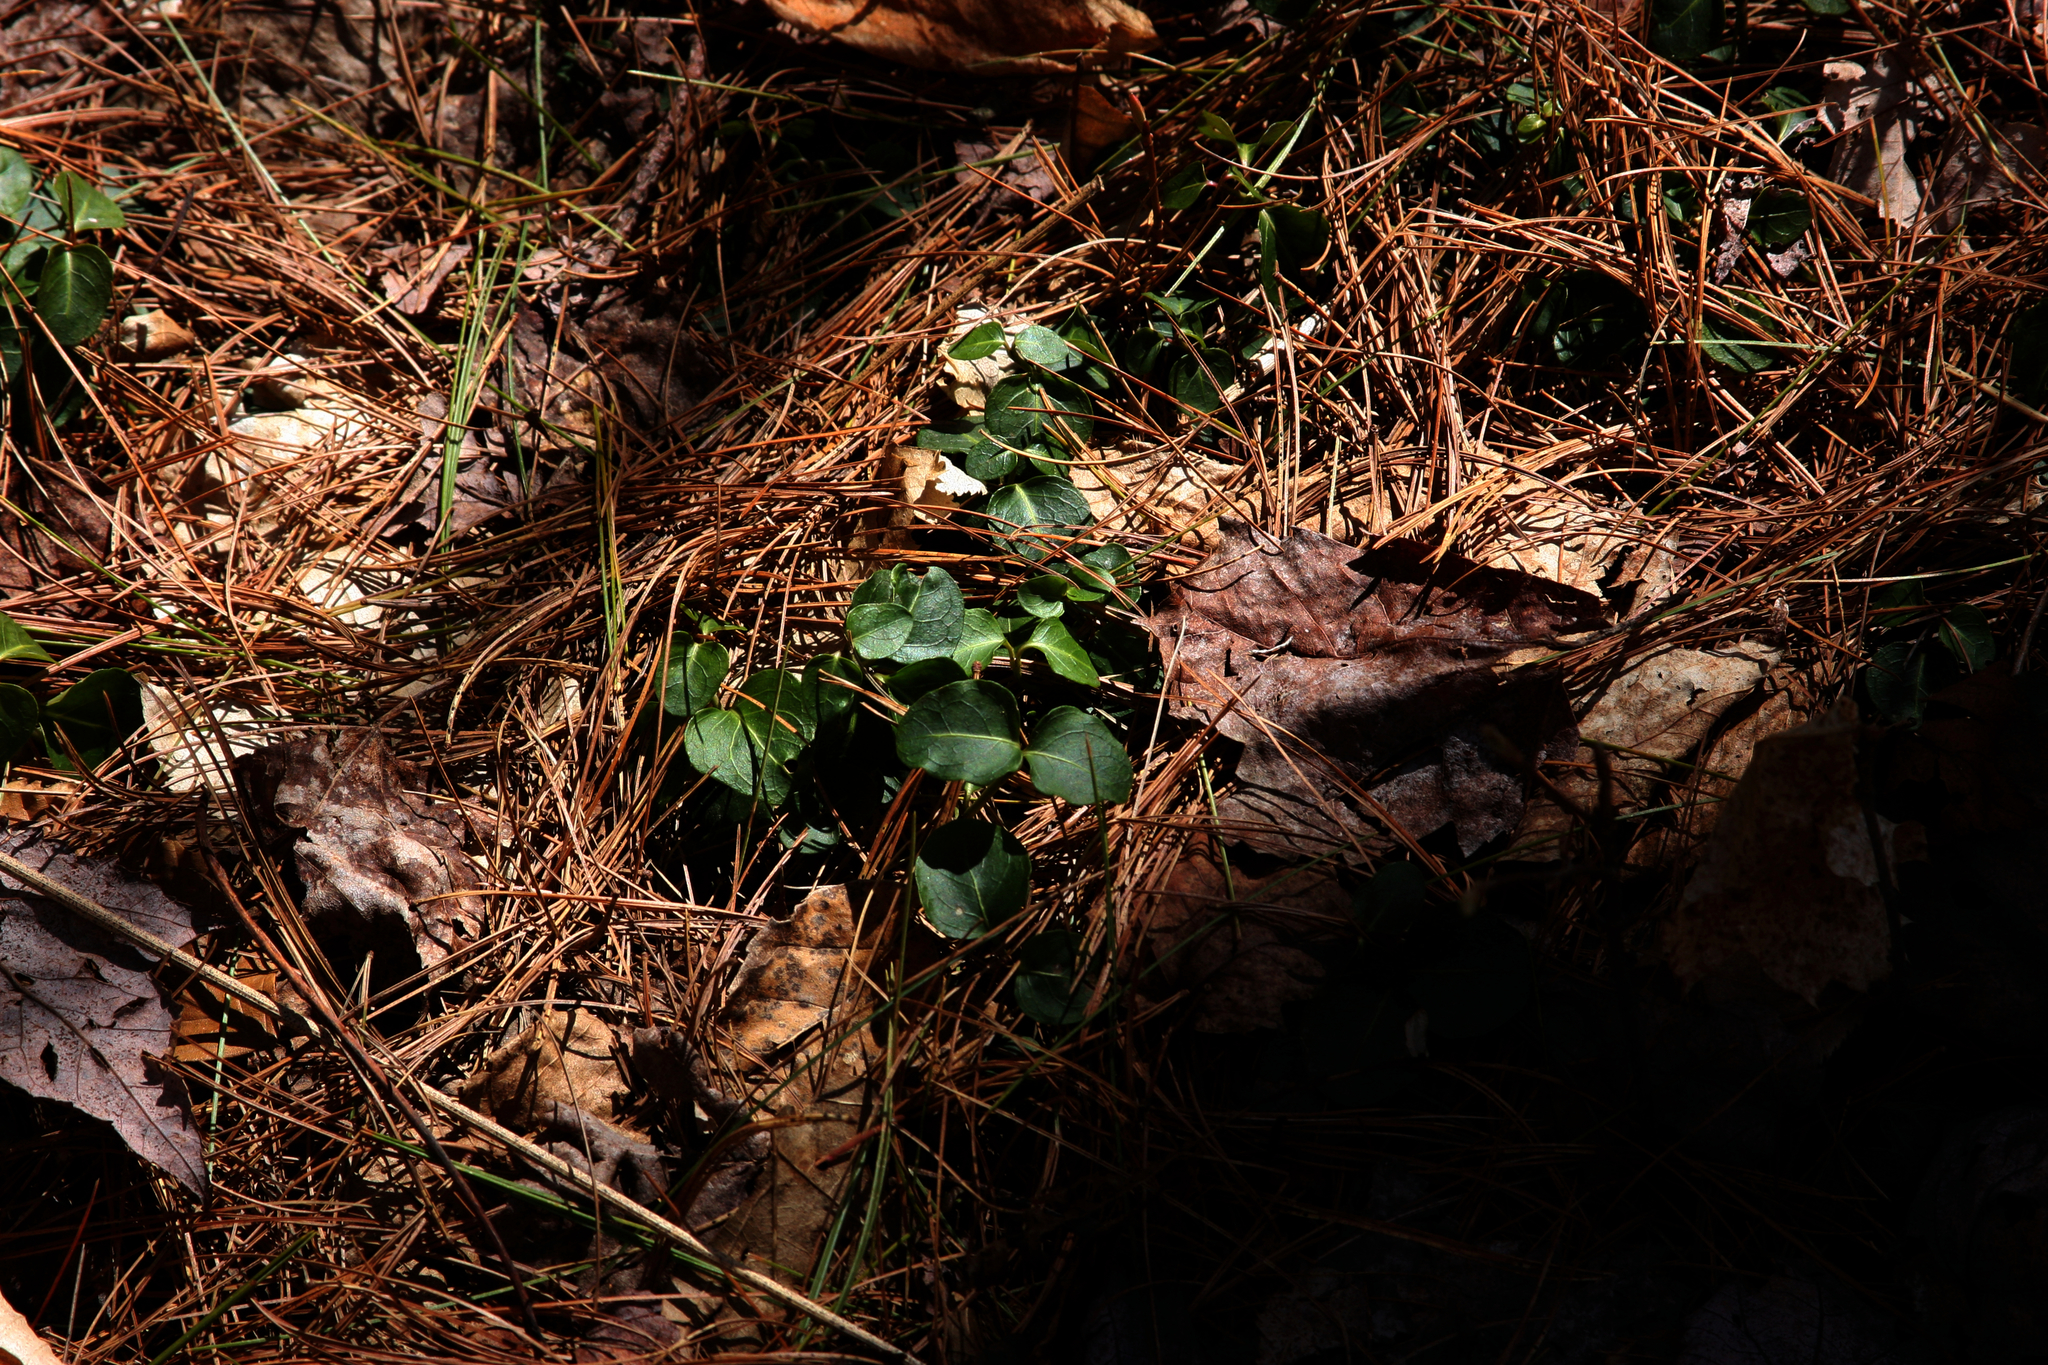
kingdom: Plantae
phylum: Tracheophyta
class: Magnoliopsida
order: Gentianales
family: Rubiaceae
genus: Mitchella
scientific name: Mitchella repens
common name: Partridge-berry
